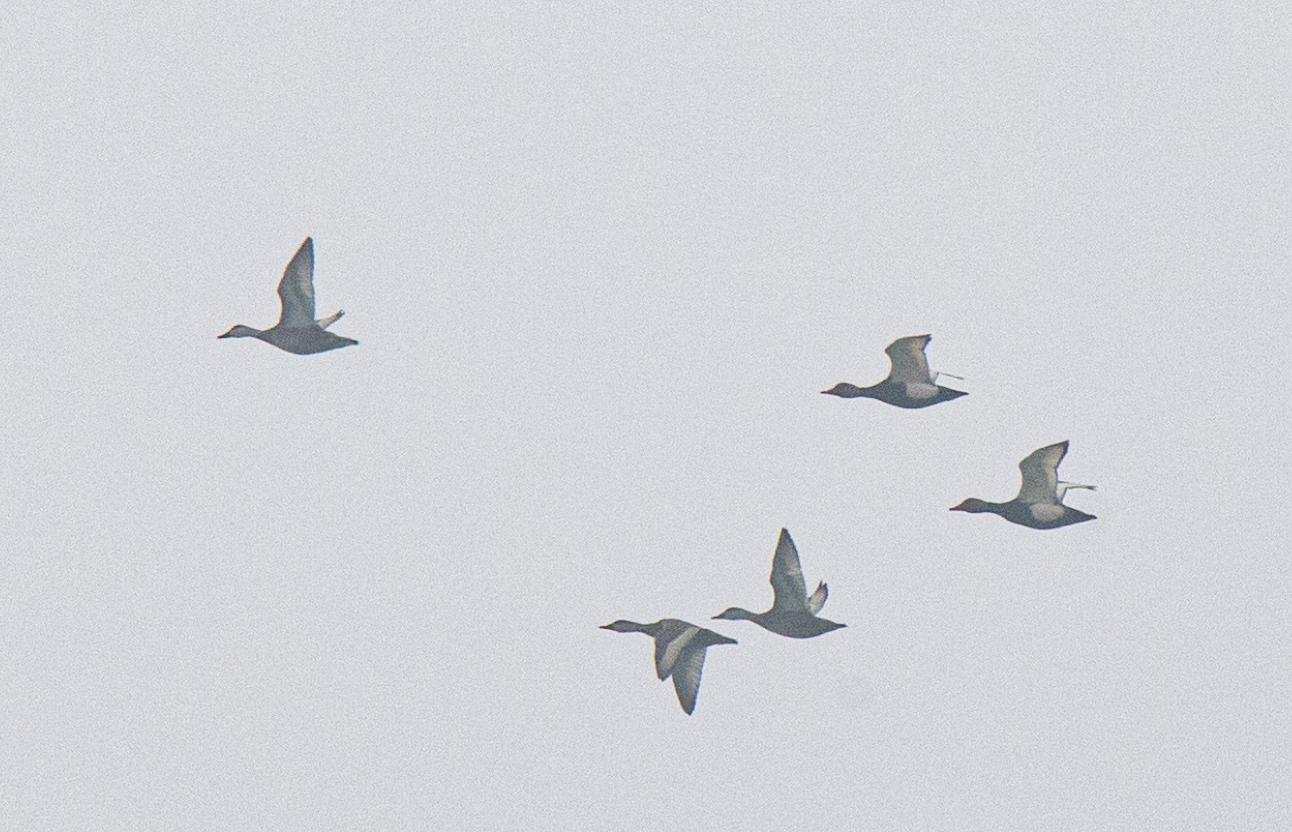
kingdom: Animalia
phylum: Chordata
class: Aves
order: Anseriformes
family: Anatidae
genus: Netta
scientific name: Netta rufina
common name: Red-crested pochard
